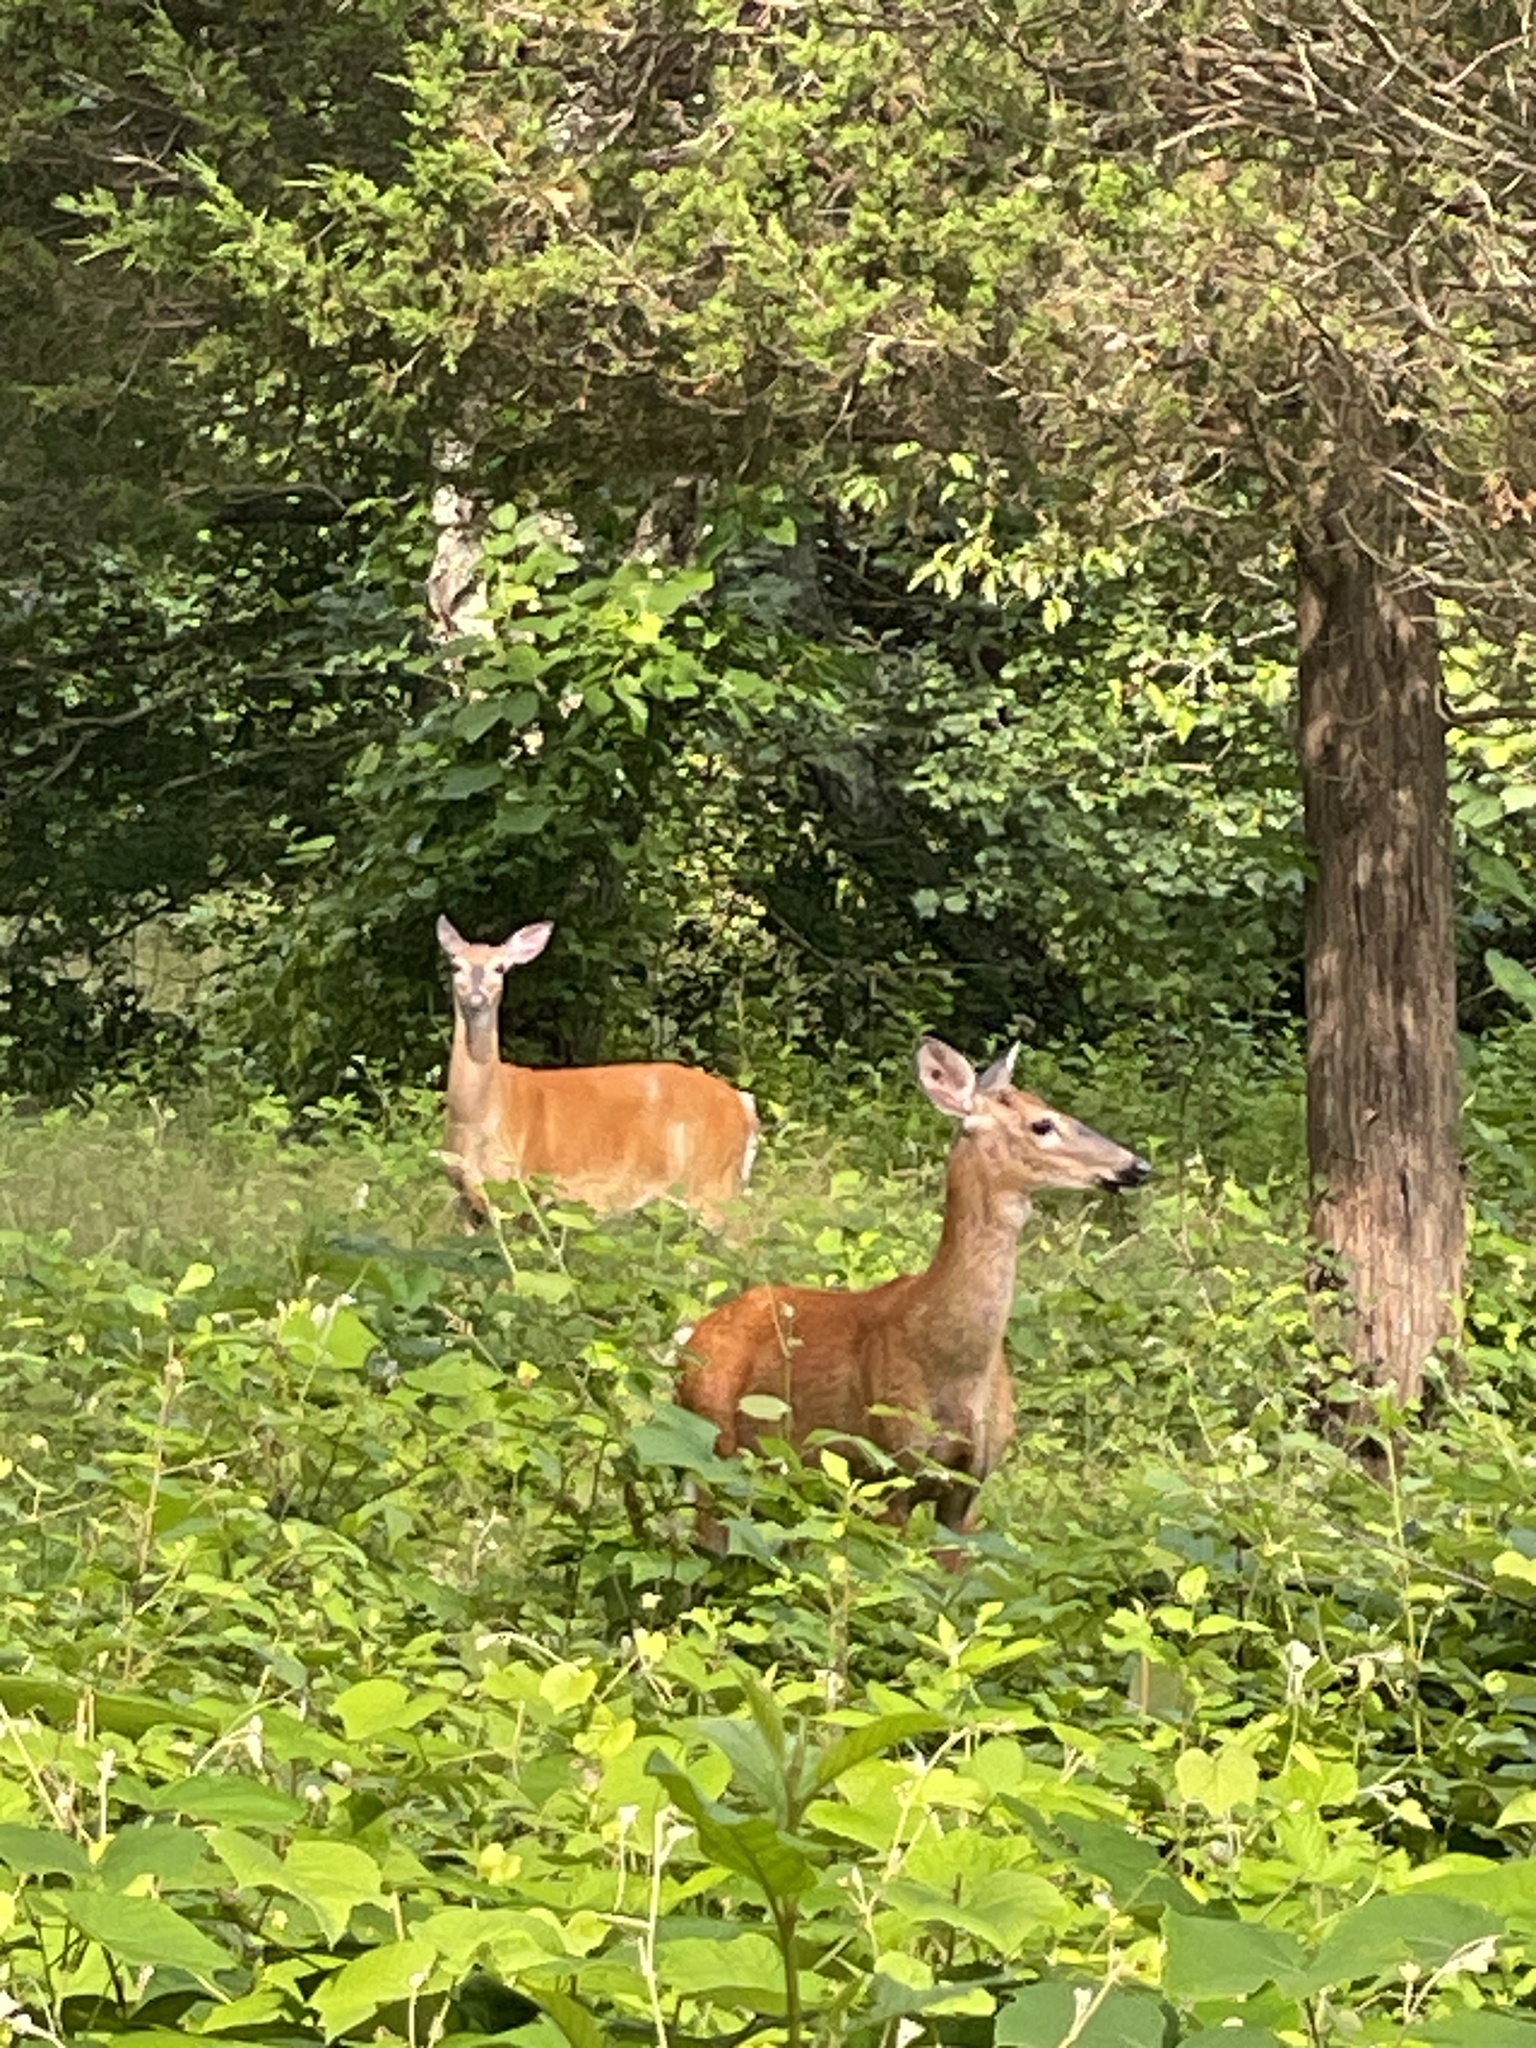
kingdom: Animalia
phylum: Chordata
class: Mammalia
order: Artiodactyla
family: Cervidae
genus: Odocoileus
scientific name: Odocoileus virginianus
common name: White-tailed deer
